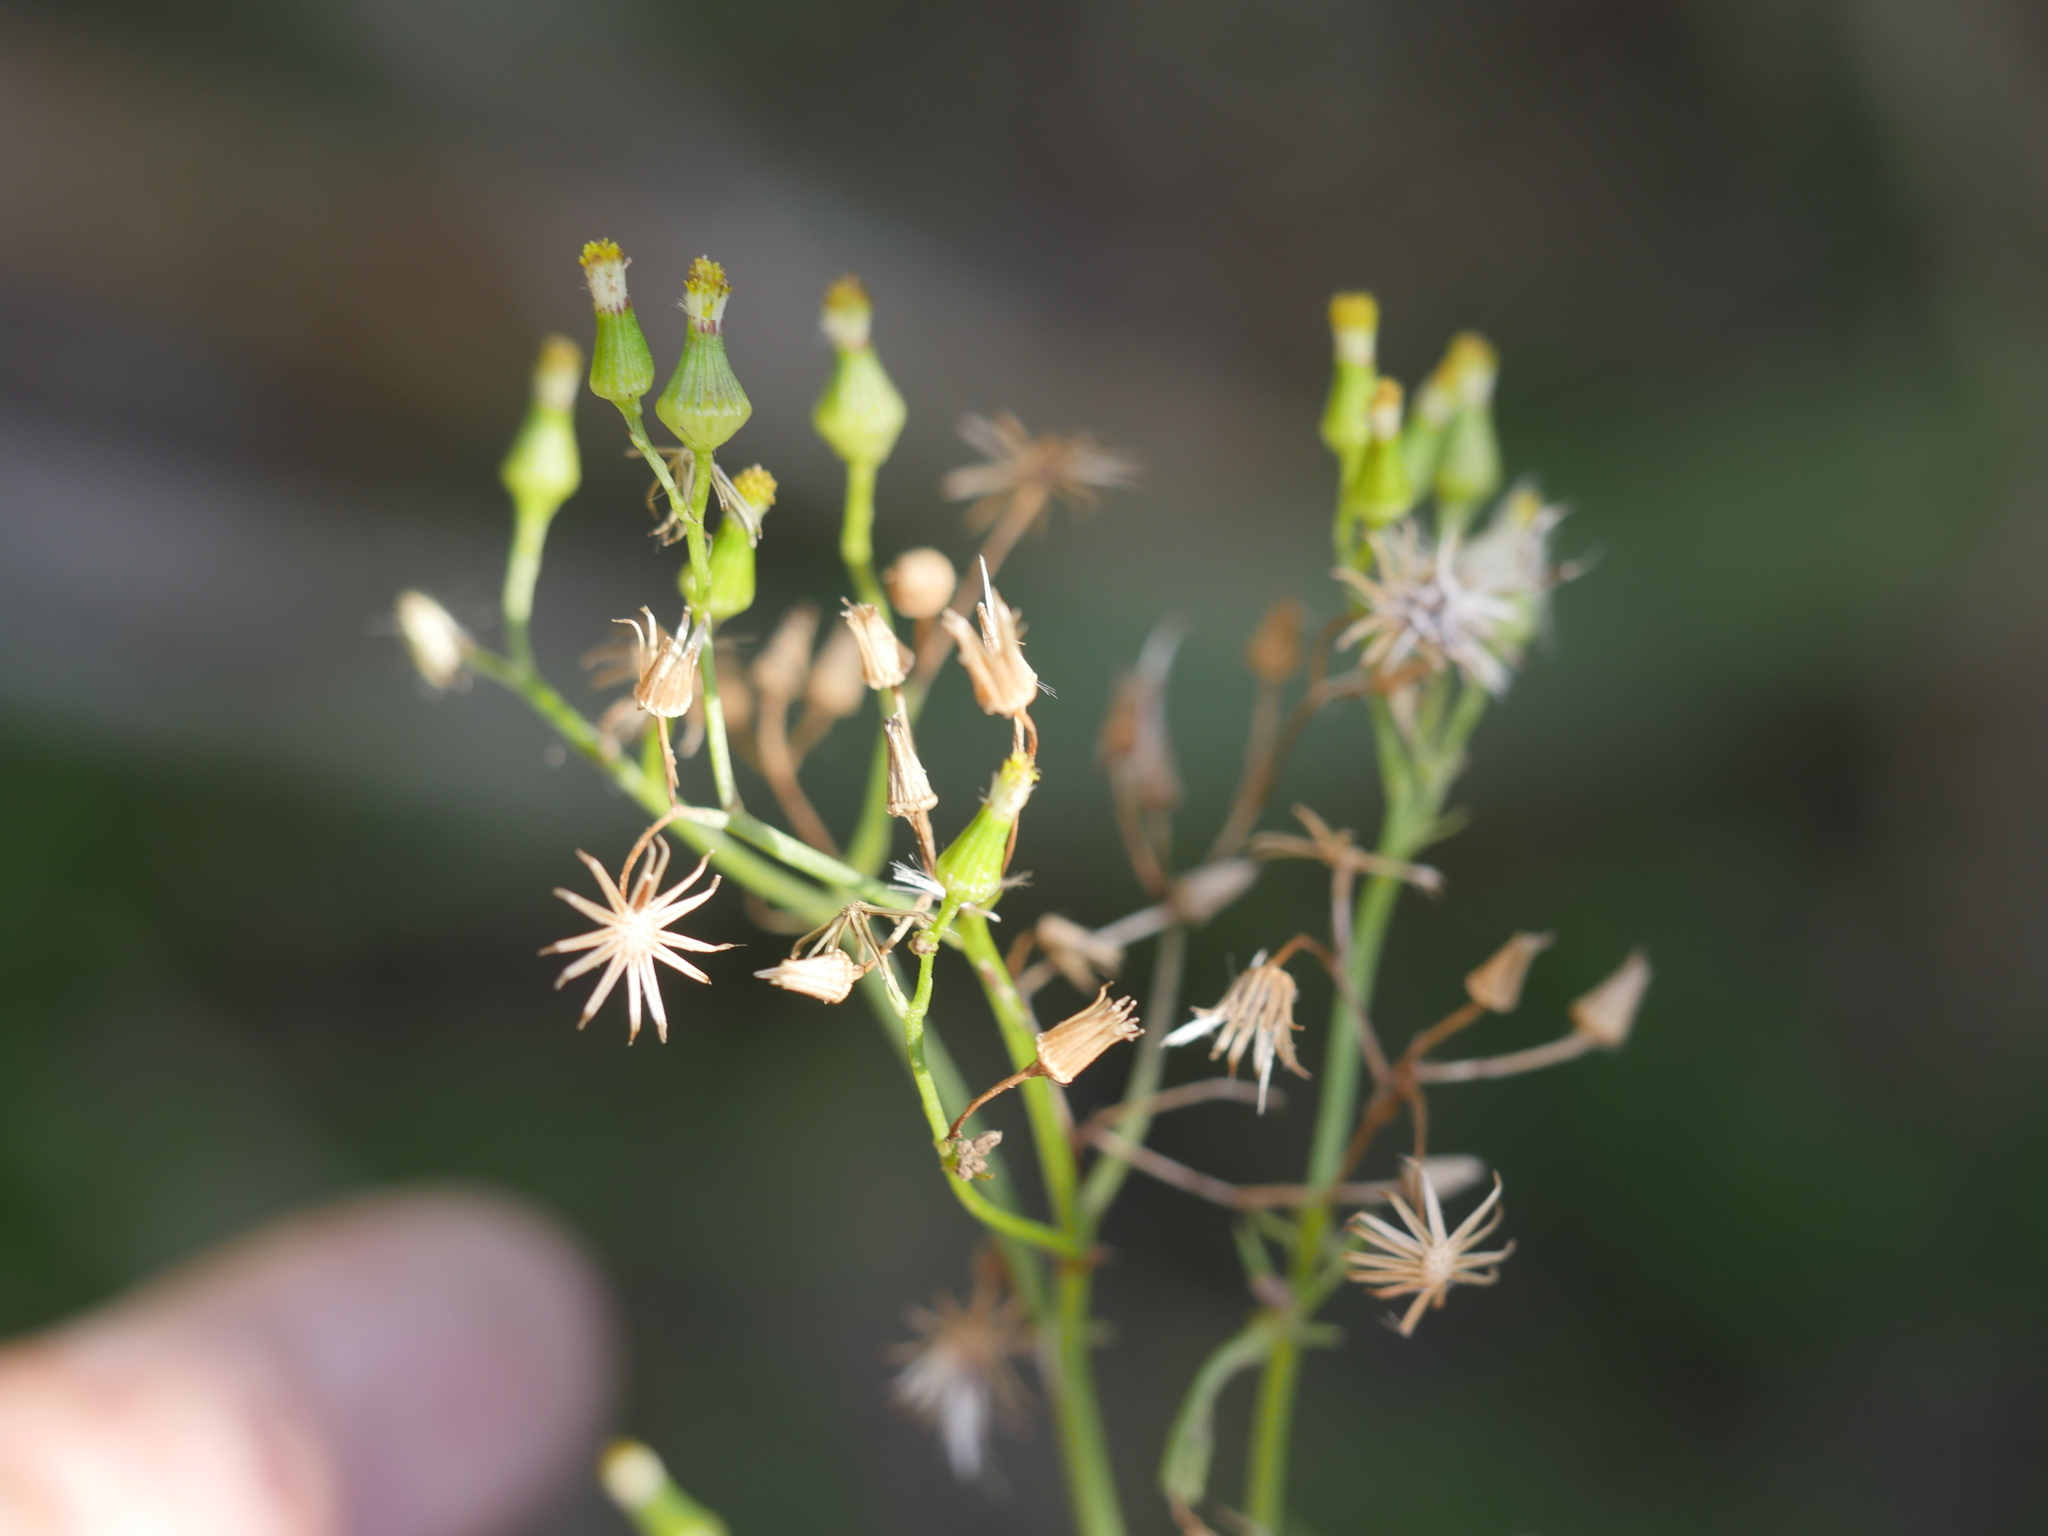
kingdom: Plantae
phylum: Tracheophyta
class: Magnoliopsida
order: Asterales
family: Asteraceae
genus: Senecio
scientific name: Senecio bipinnatisectus
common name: Australian fireweed
